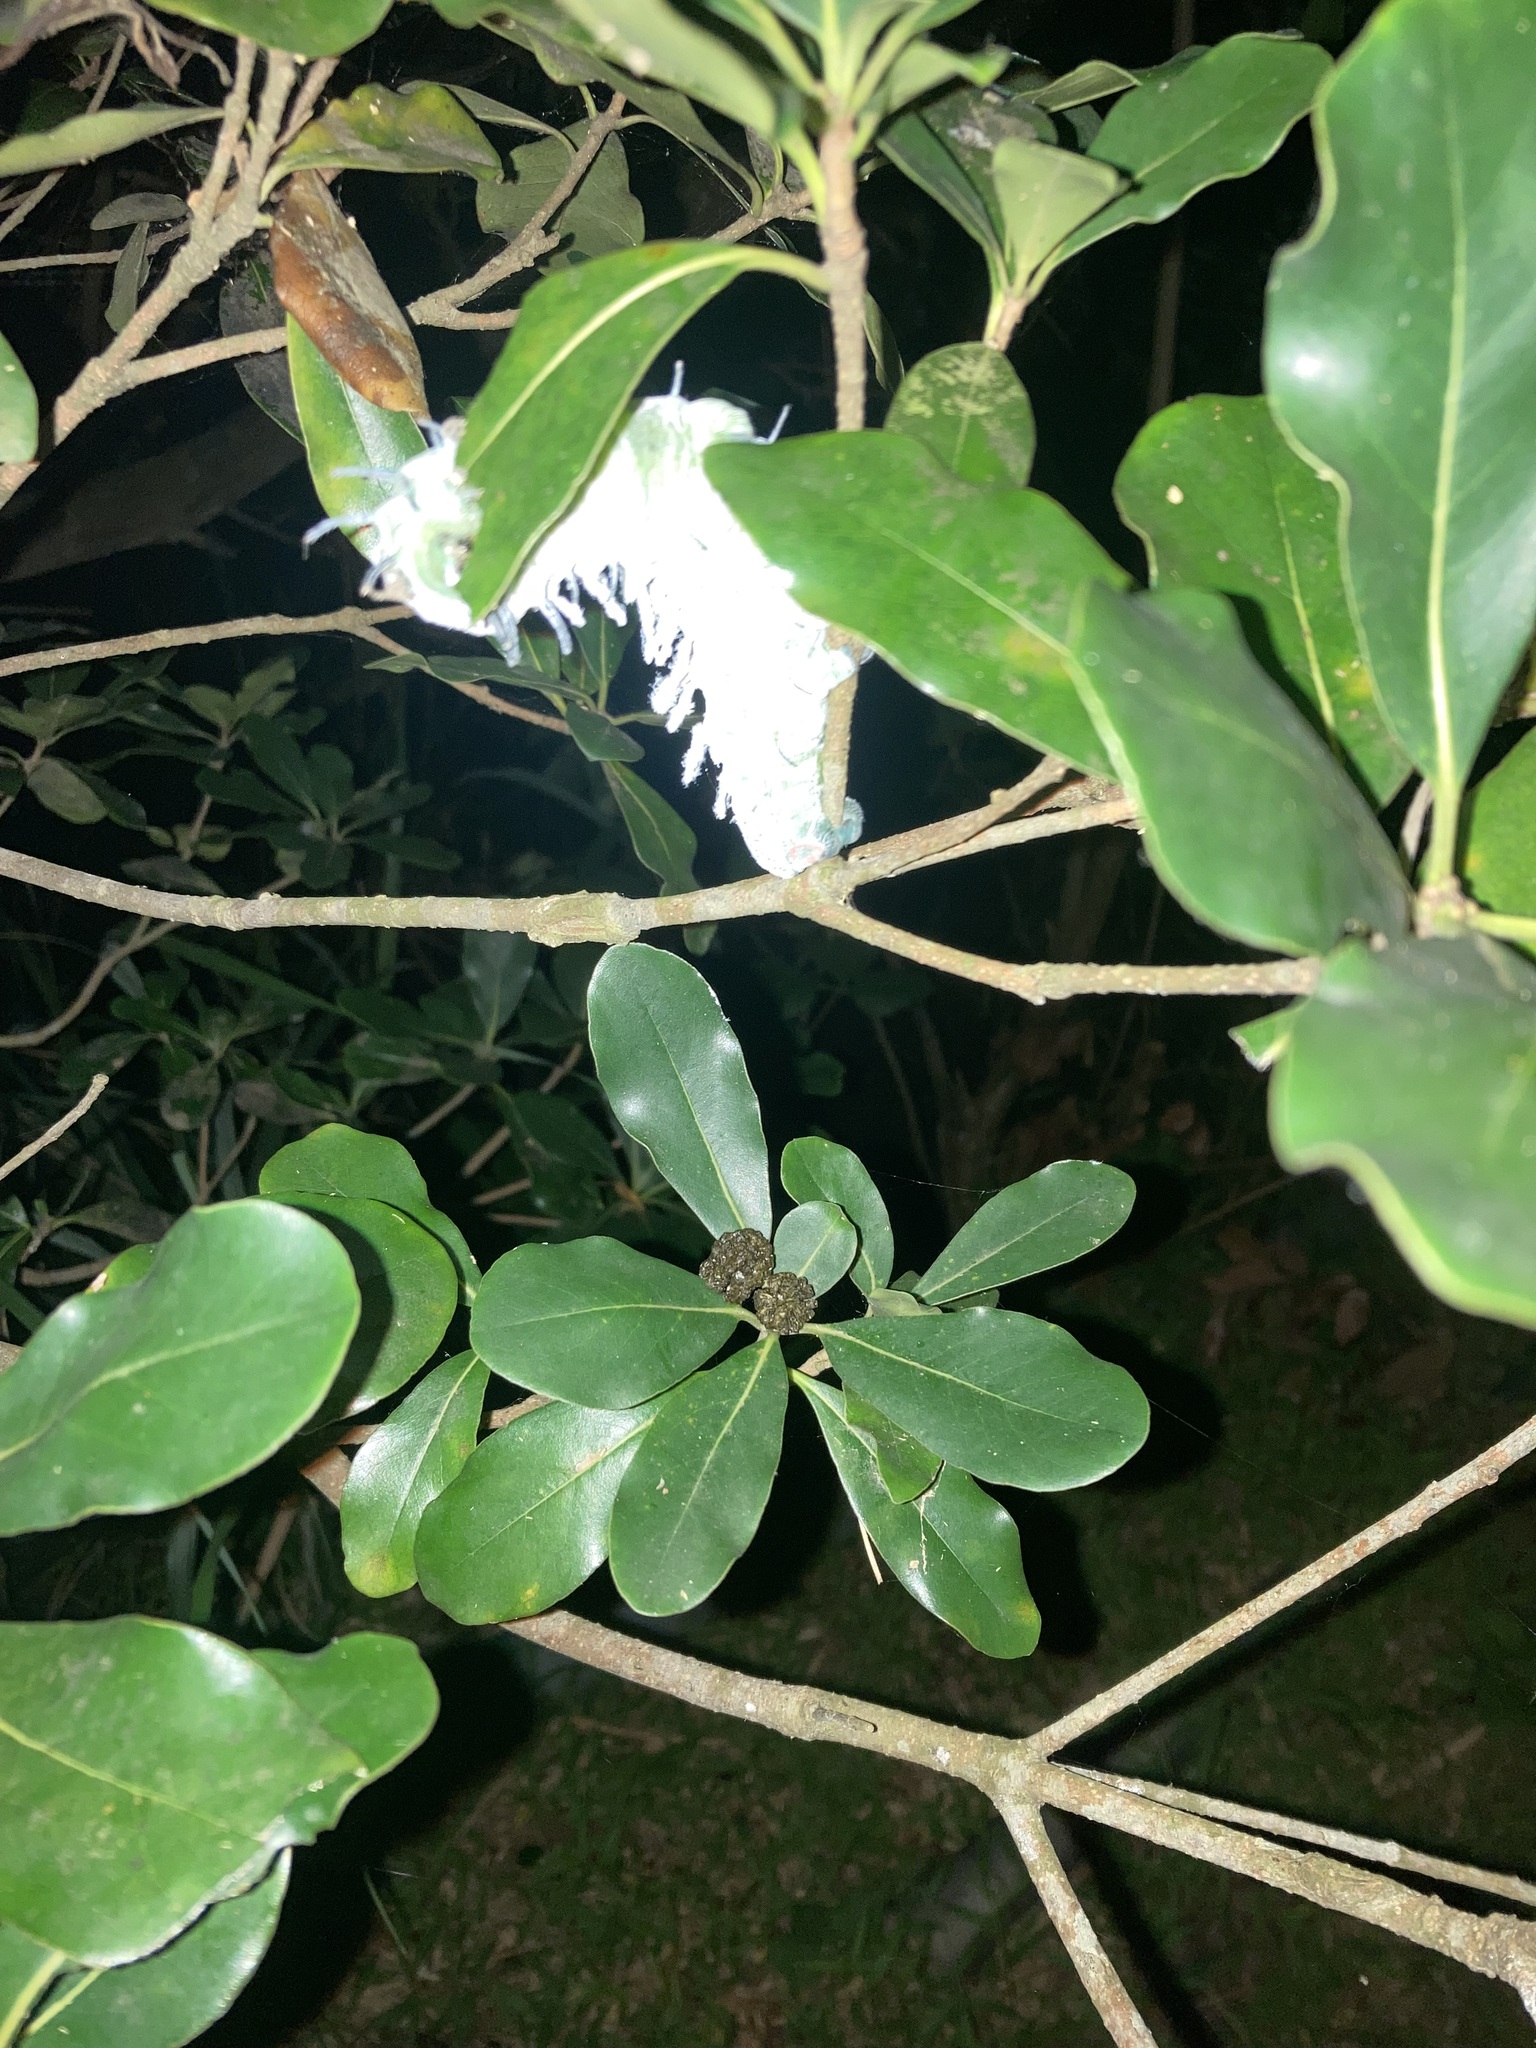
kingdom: Animalia
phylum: Arthropoda
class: Insecta
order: Lepidoptera
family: Saturniidae
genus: Attacus
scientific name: Attacus atlas
